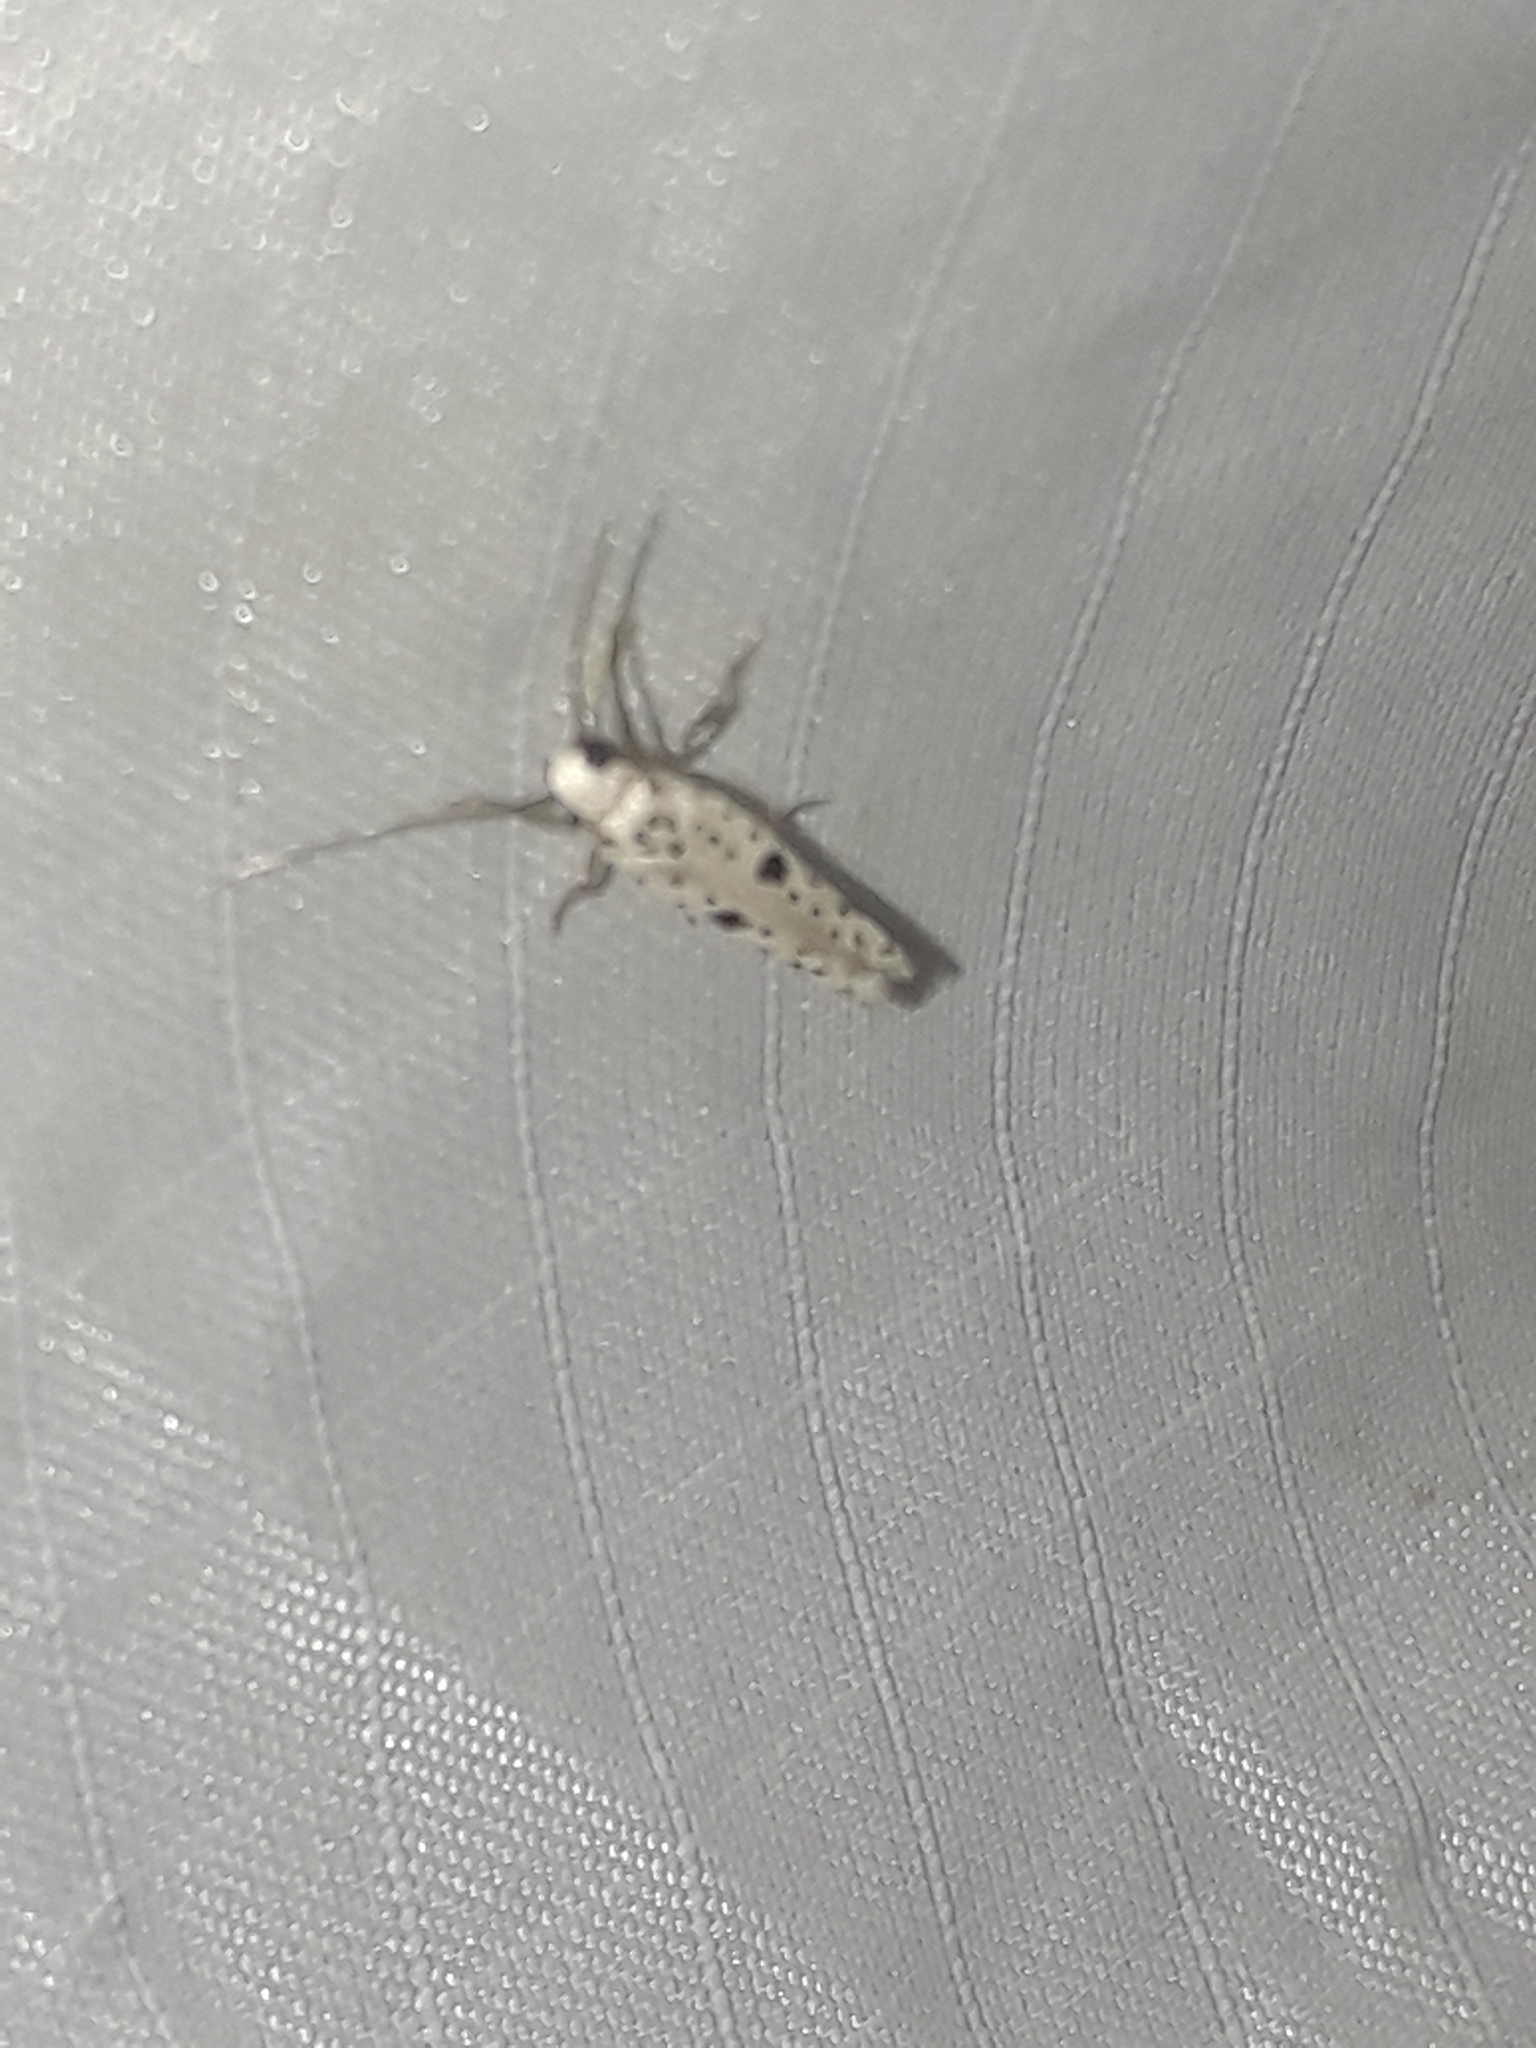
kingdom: Animalia
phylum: Arthropoda
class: Insecta
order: Lepidoptera
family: Yponomeutidae
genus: Yponomeuta
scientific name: Yponomeuta plumbella
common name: Black-tipped ermine
